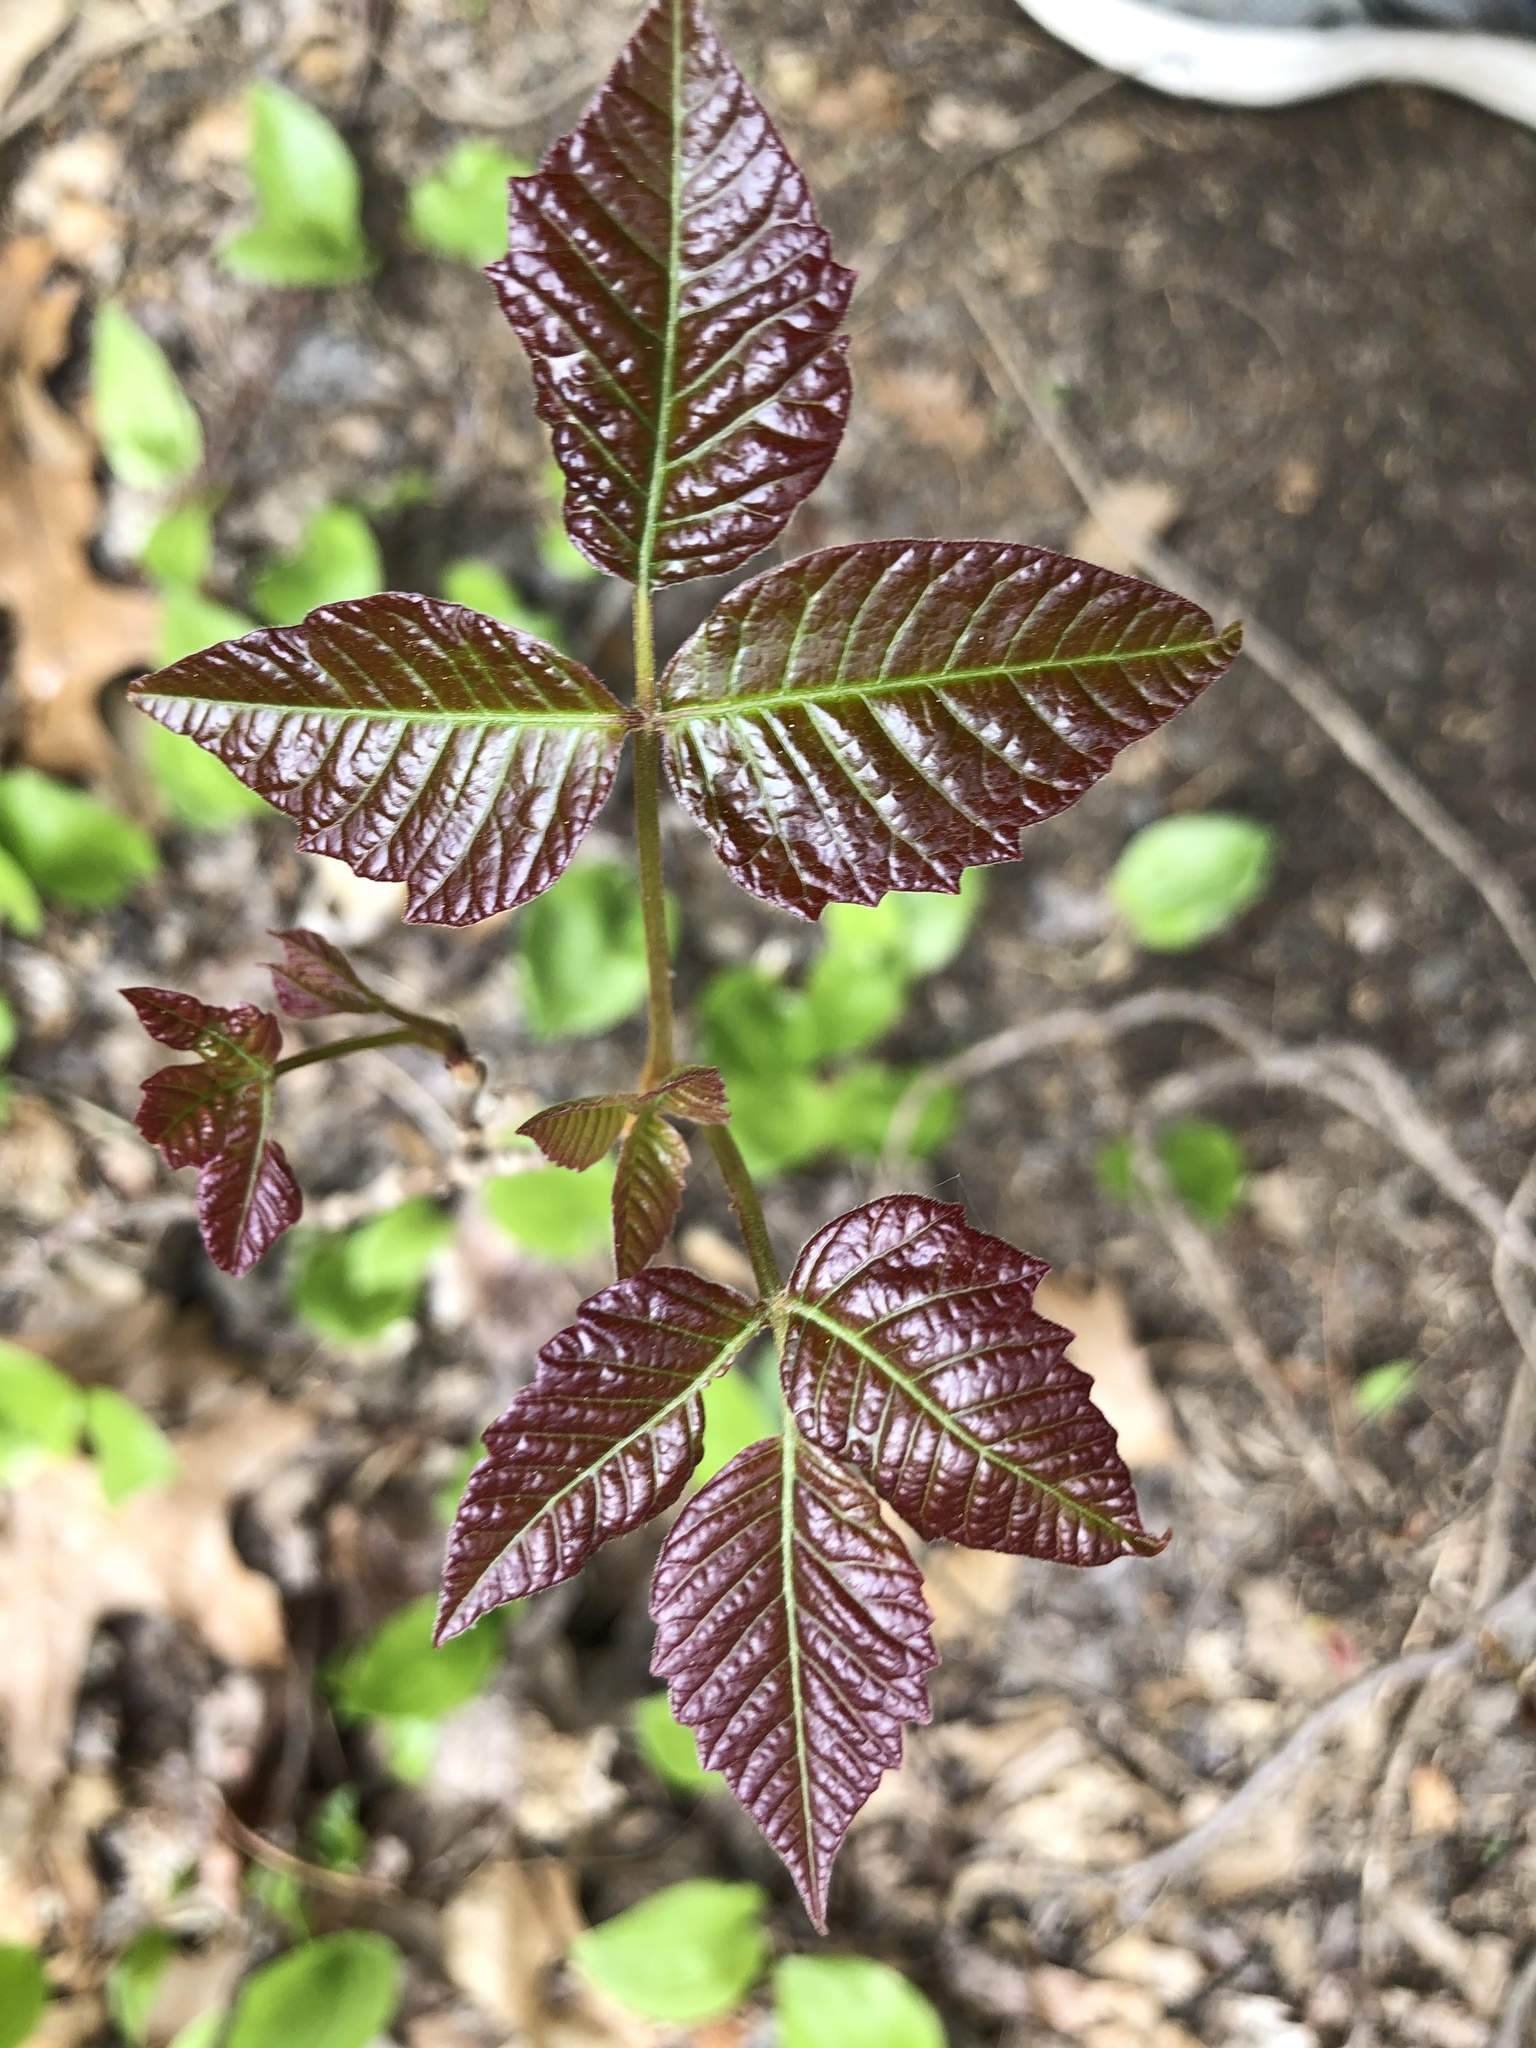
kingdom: Plantae
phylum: Tracheophyta
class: Magnoliopsida
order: Sapindales
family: Anacardiaceae
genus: Toxicodendron
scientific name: Toxicodendron radicans
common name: Poison ivy
